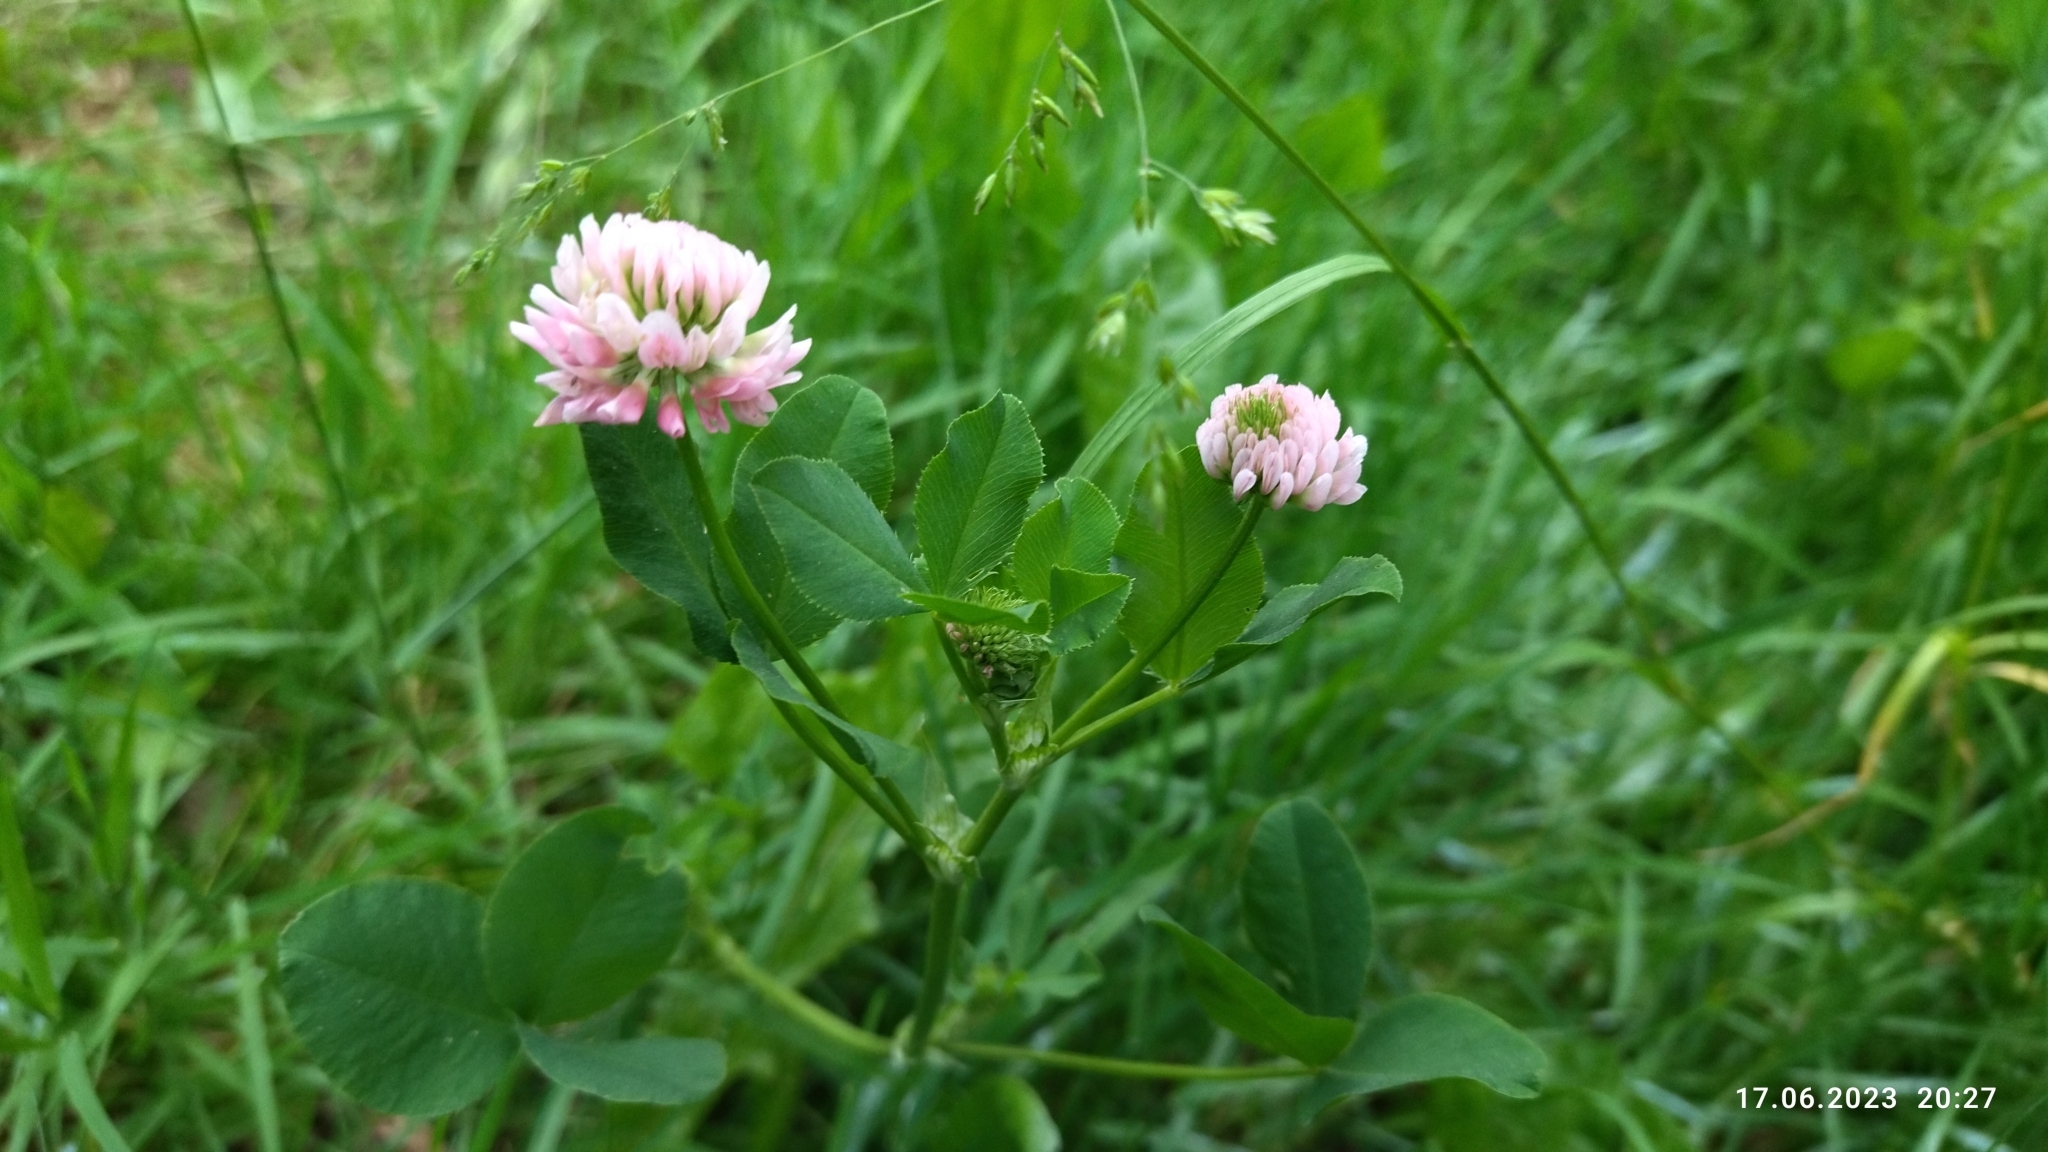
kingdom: Plantae
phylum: Tracheophyta
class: Magnoliopsida
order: Fabales
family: Fabaceae
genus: Trifolium
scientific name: Trifolium hybridum
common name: Alsike clover
